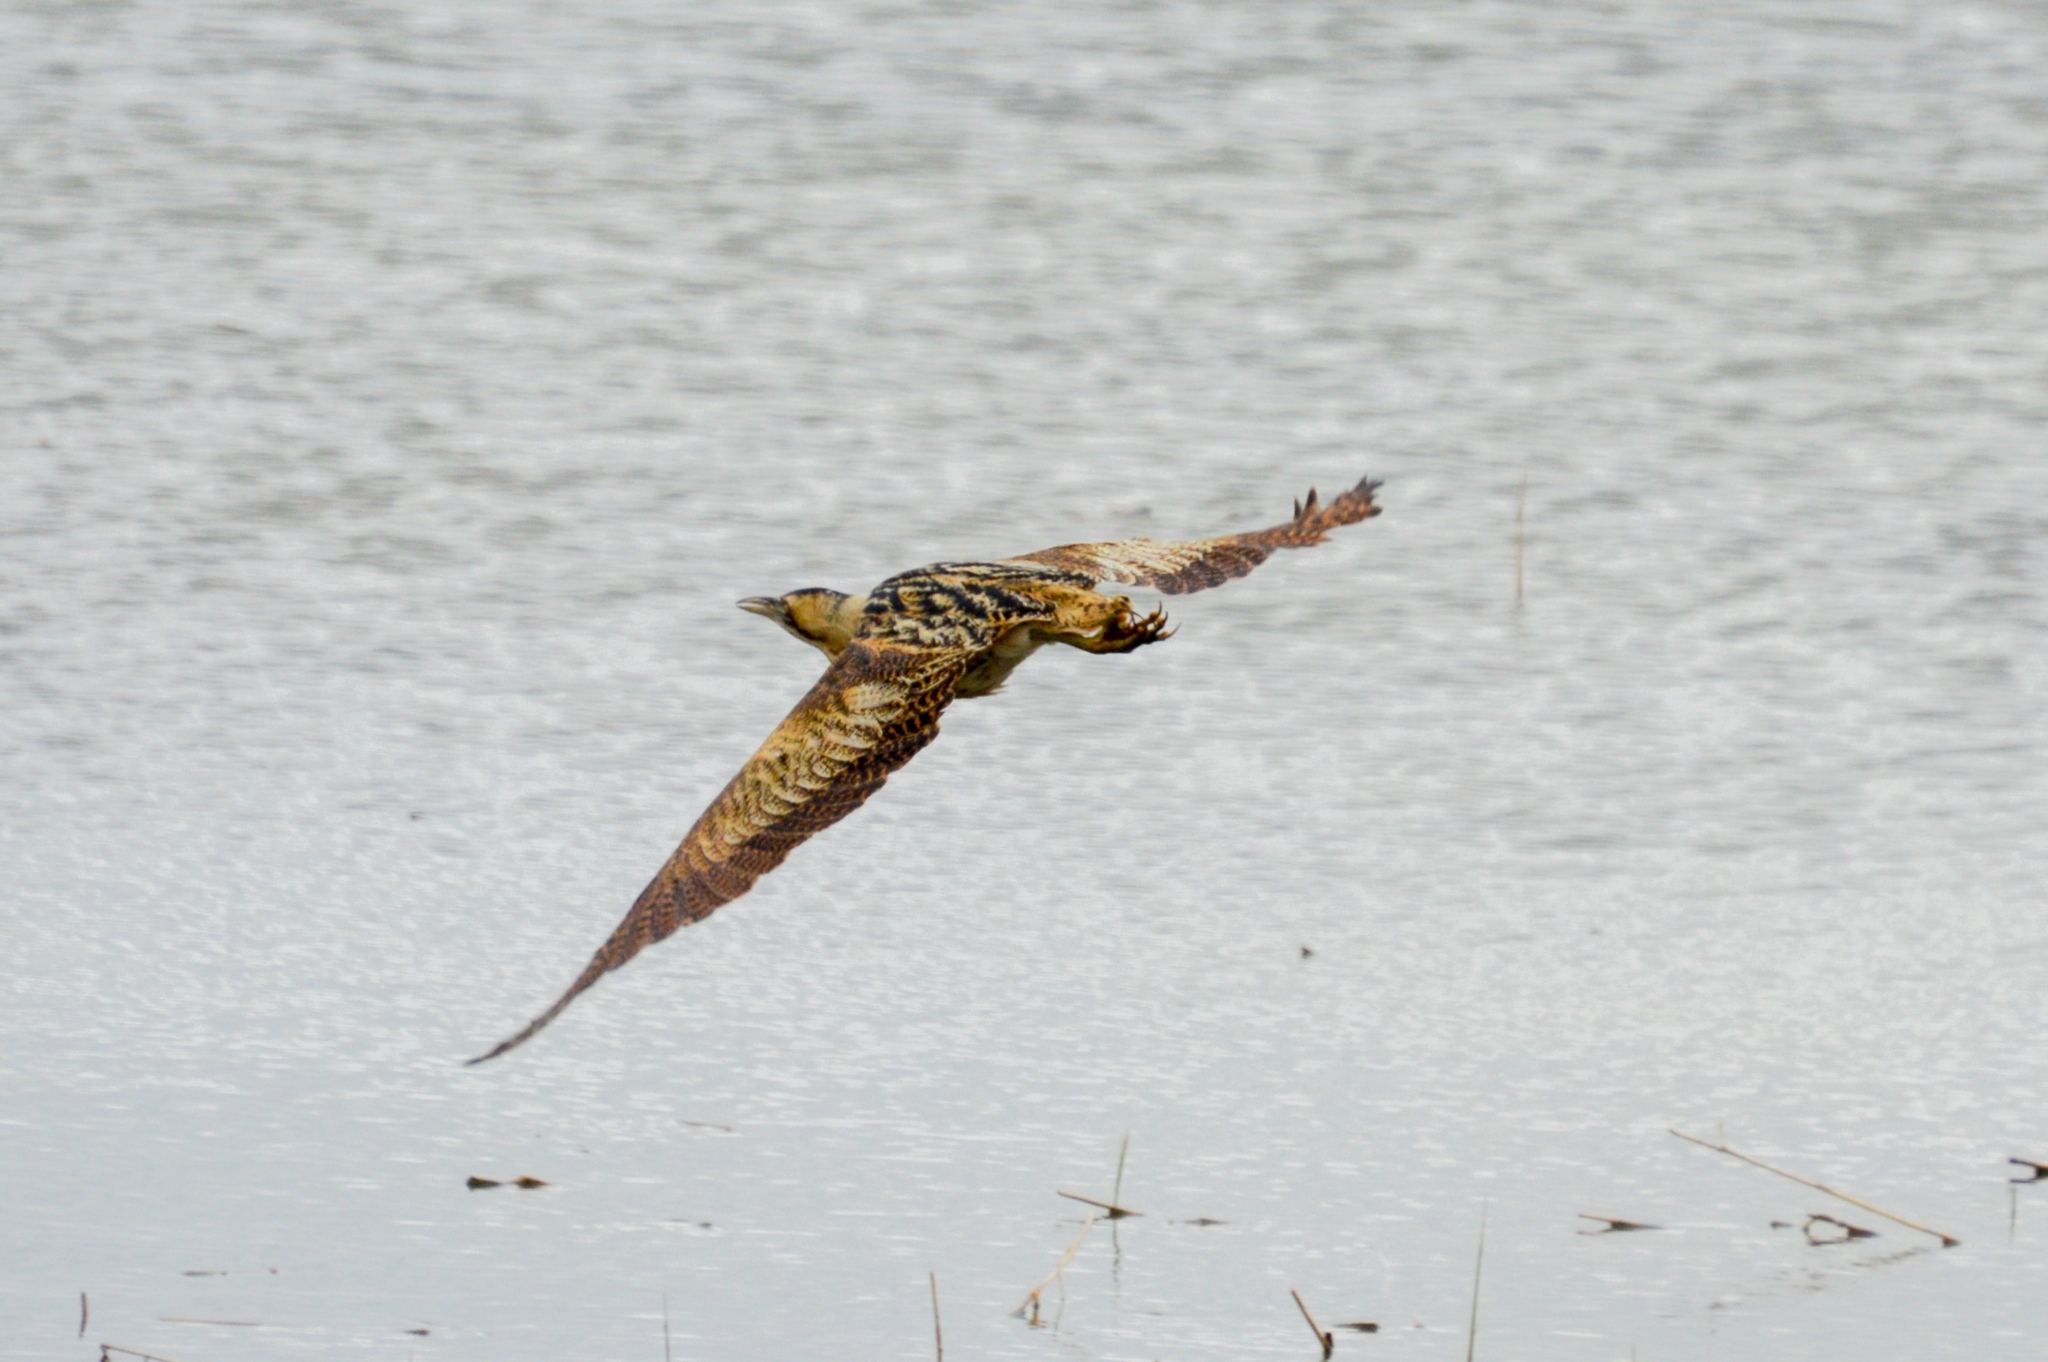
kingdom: Animalia
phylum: Chordata
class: Aves
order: Pelecaniformes
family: Ardeidae
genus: Botaurus
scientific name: Botaurus stellaris
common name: Eurasian bittern
